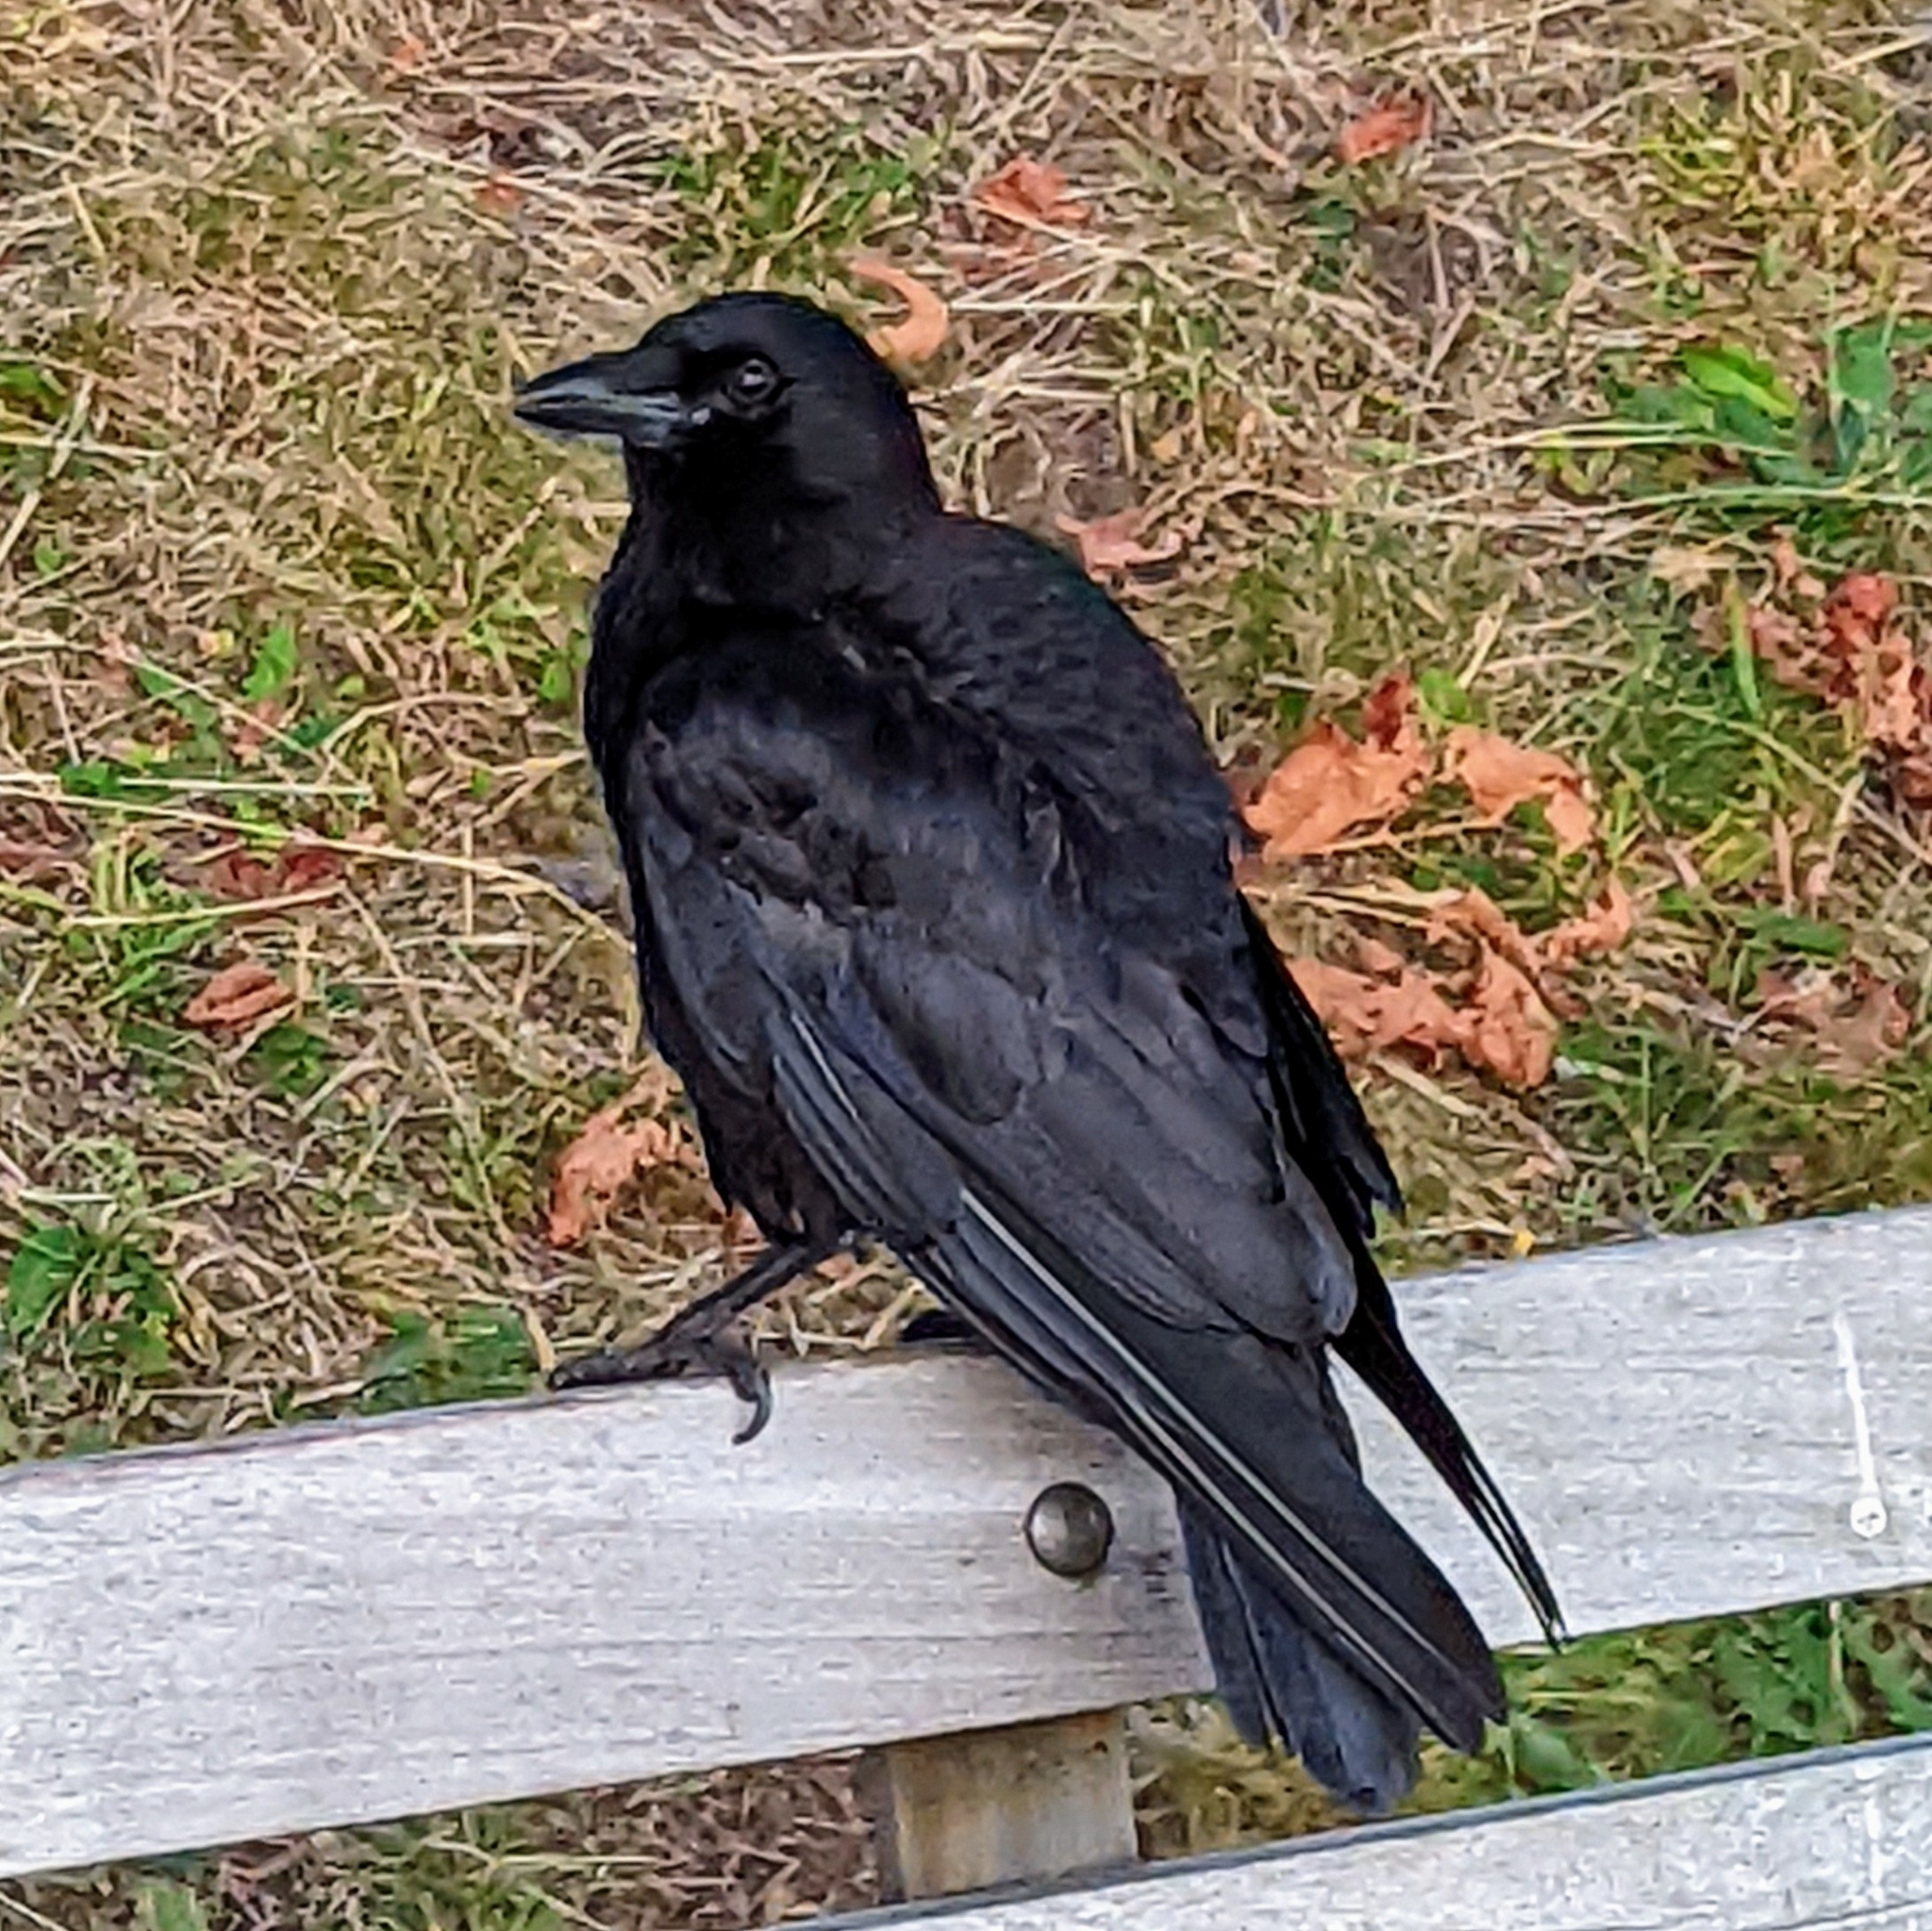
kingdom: Animalia
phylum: Chordata
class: Aves
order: Passeriformes
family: Corvidae
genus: Corvus
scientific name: Corvus brachyrhynchos
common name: American crow
